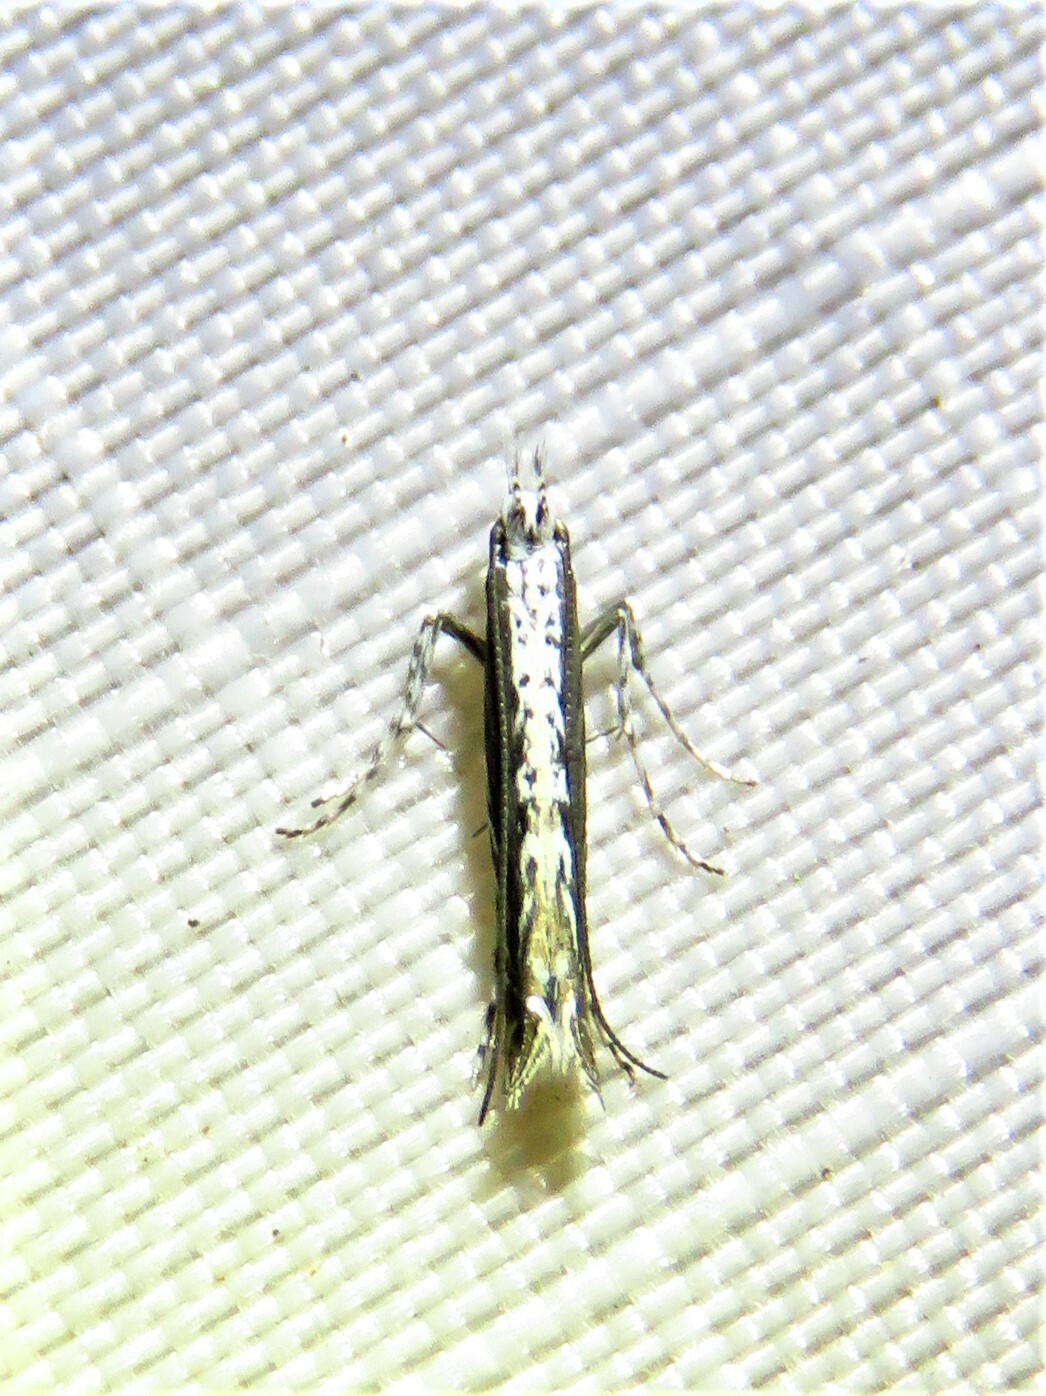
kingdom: Plantae
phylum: Rhodophyta
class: Florideophyceae
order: Gracilariales
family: Gracilariaceae
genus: Gracilaria
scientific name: Gracilaria
